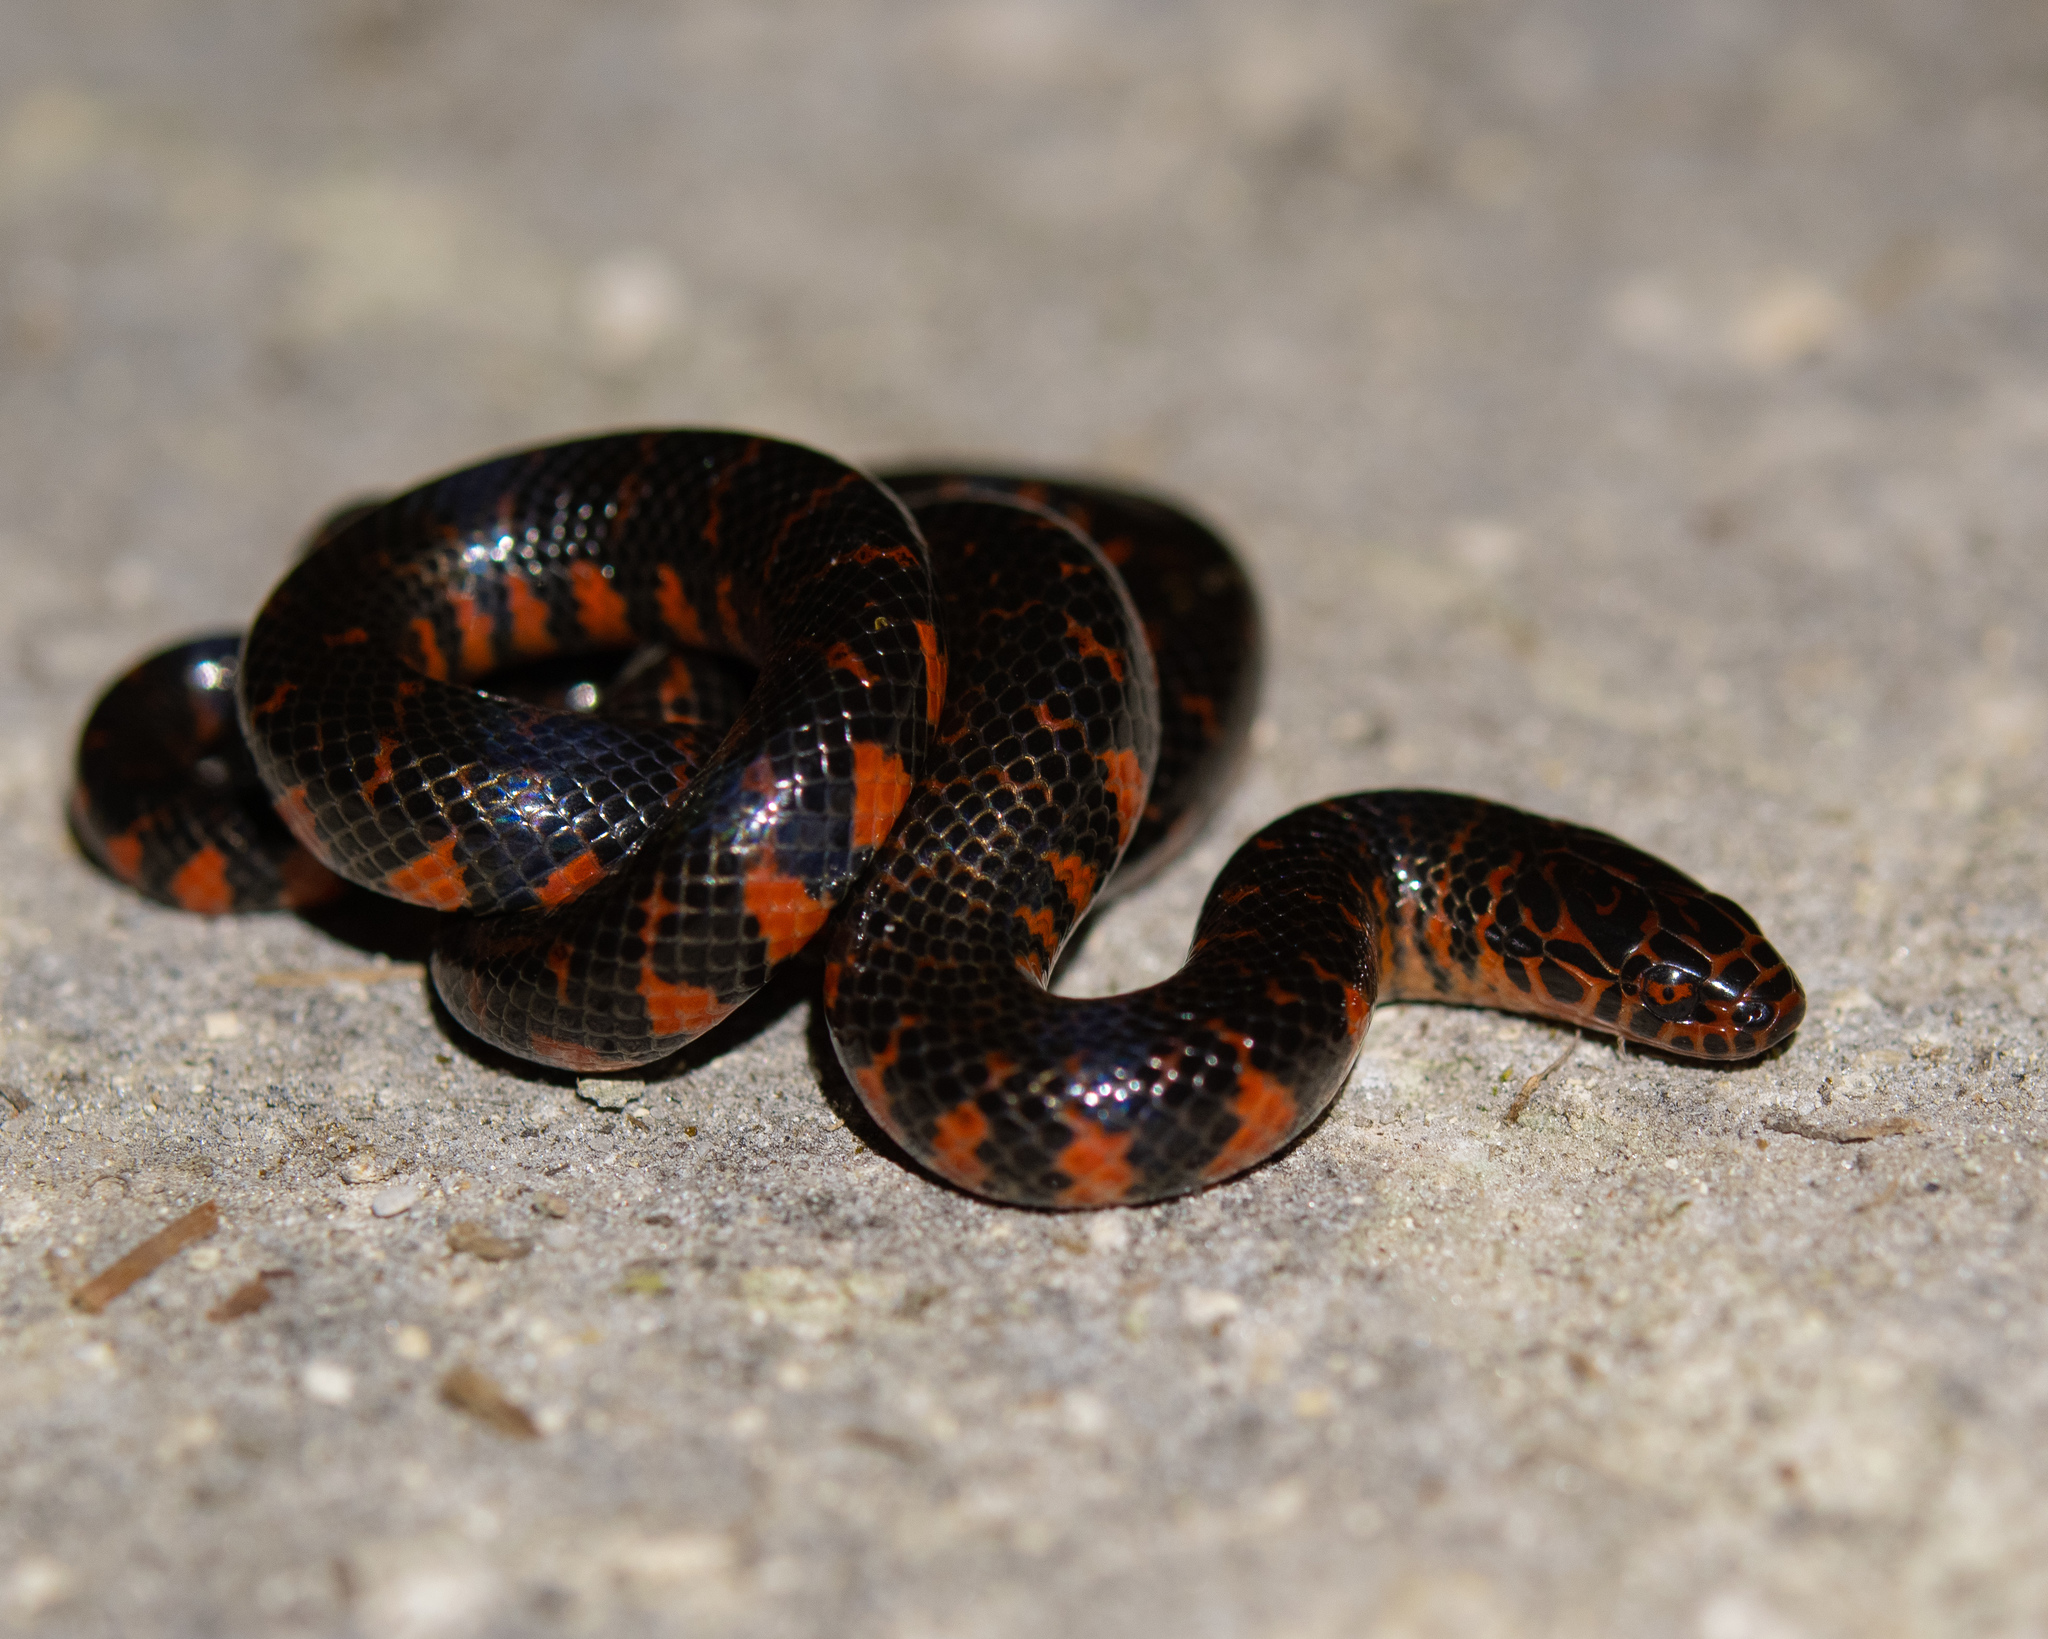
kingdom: Animalia
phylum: Chordata
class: Squamata
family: Colubridae
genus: Farancia
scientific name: Farancia abacura
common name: Mud snake
